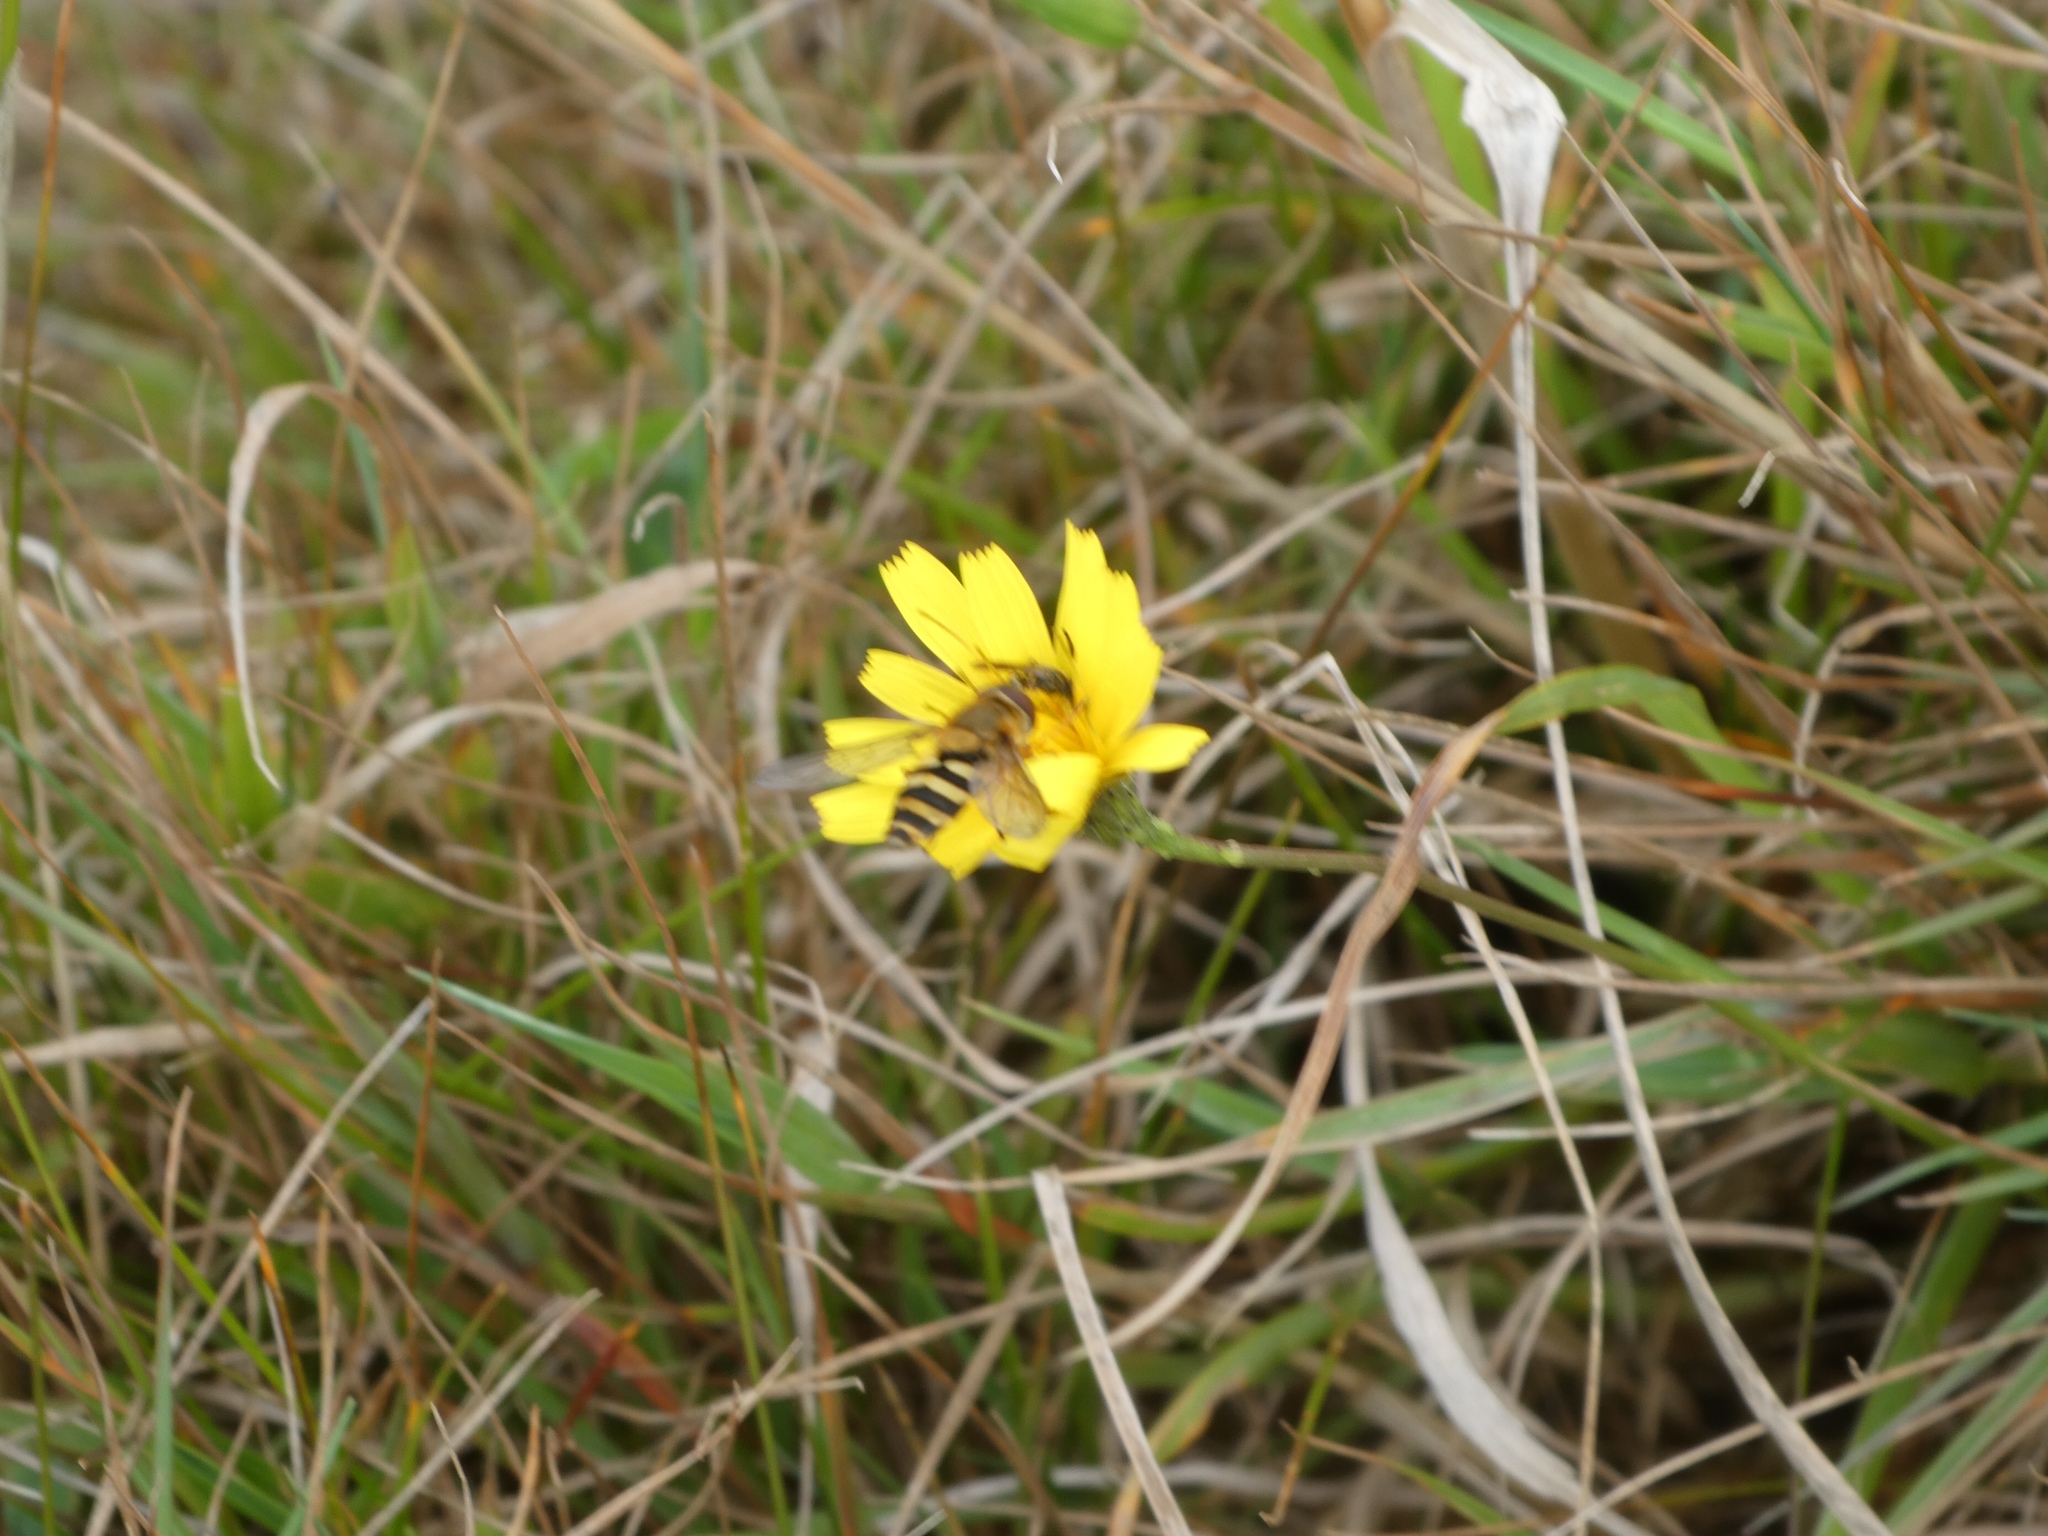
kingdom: Animalia
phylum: Arthropoda
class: Insecta
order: Diptera
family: Syrphidae
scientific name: Syrphidae
